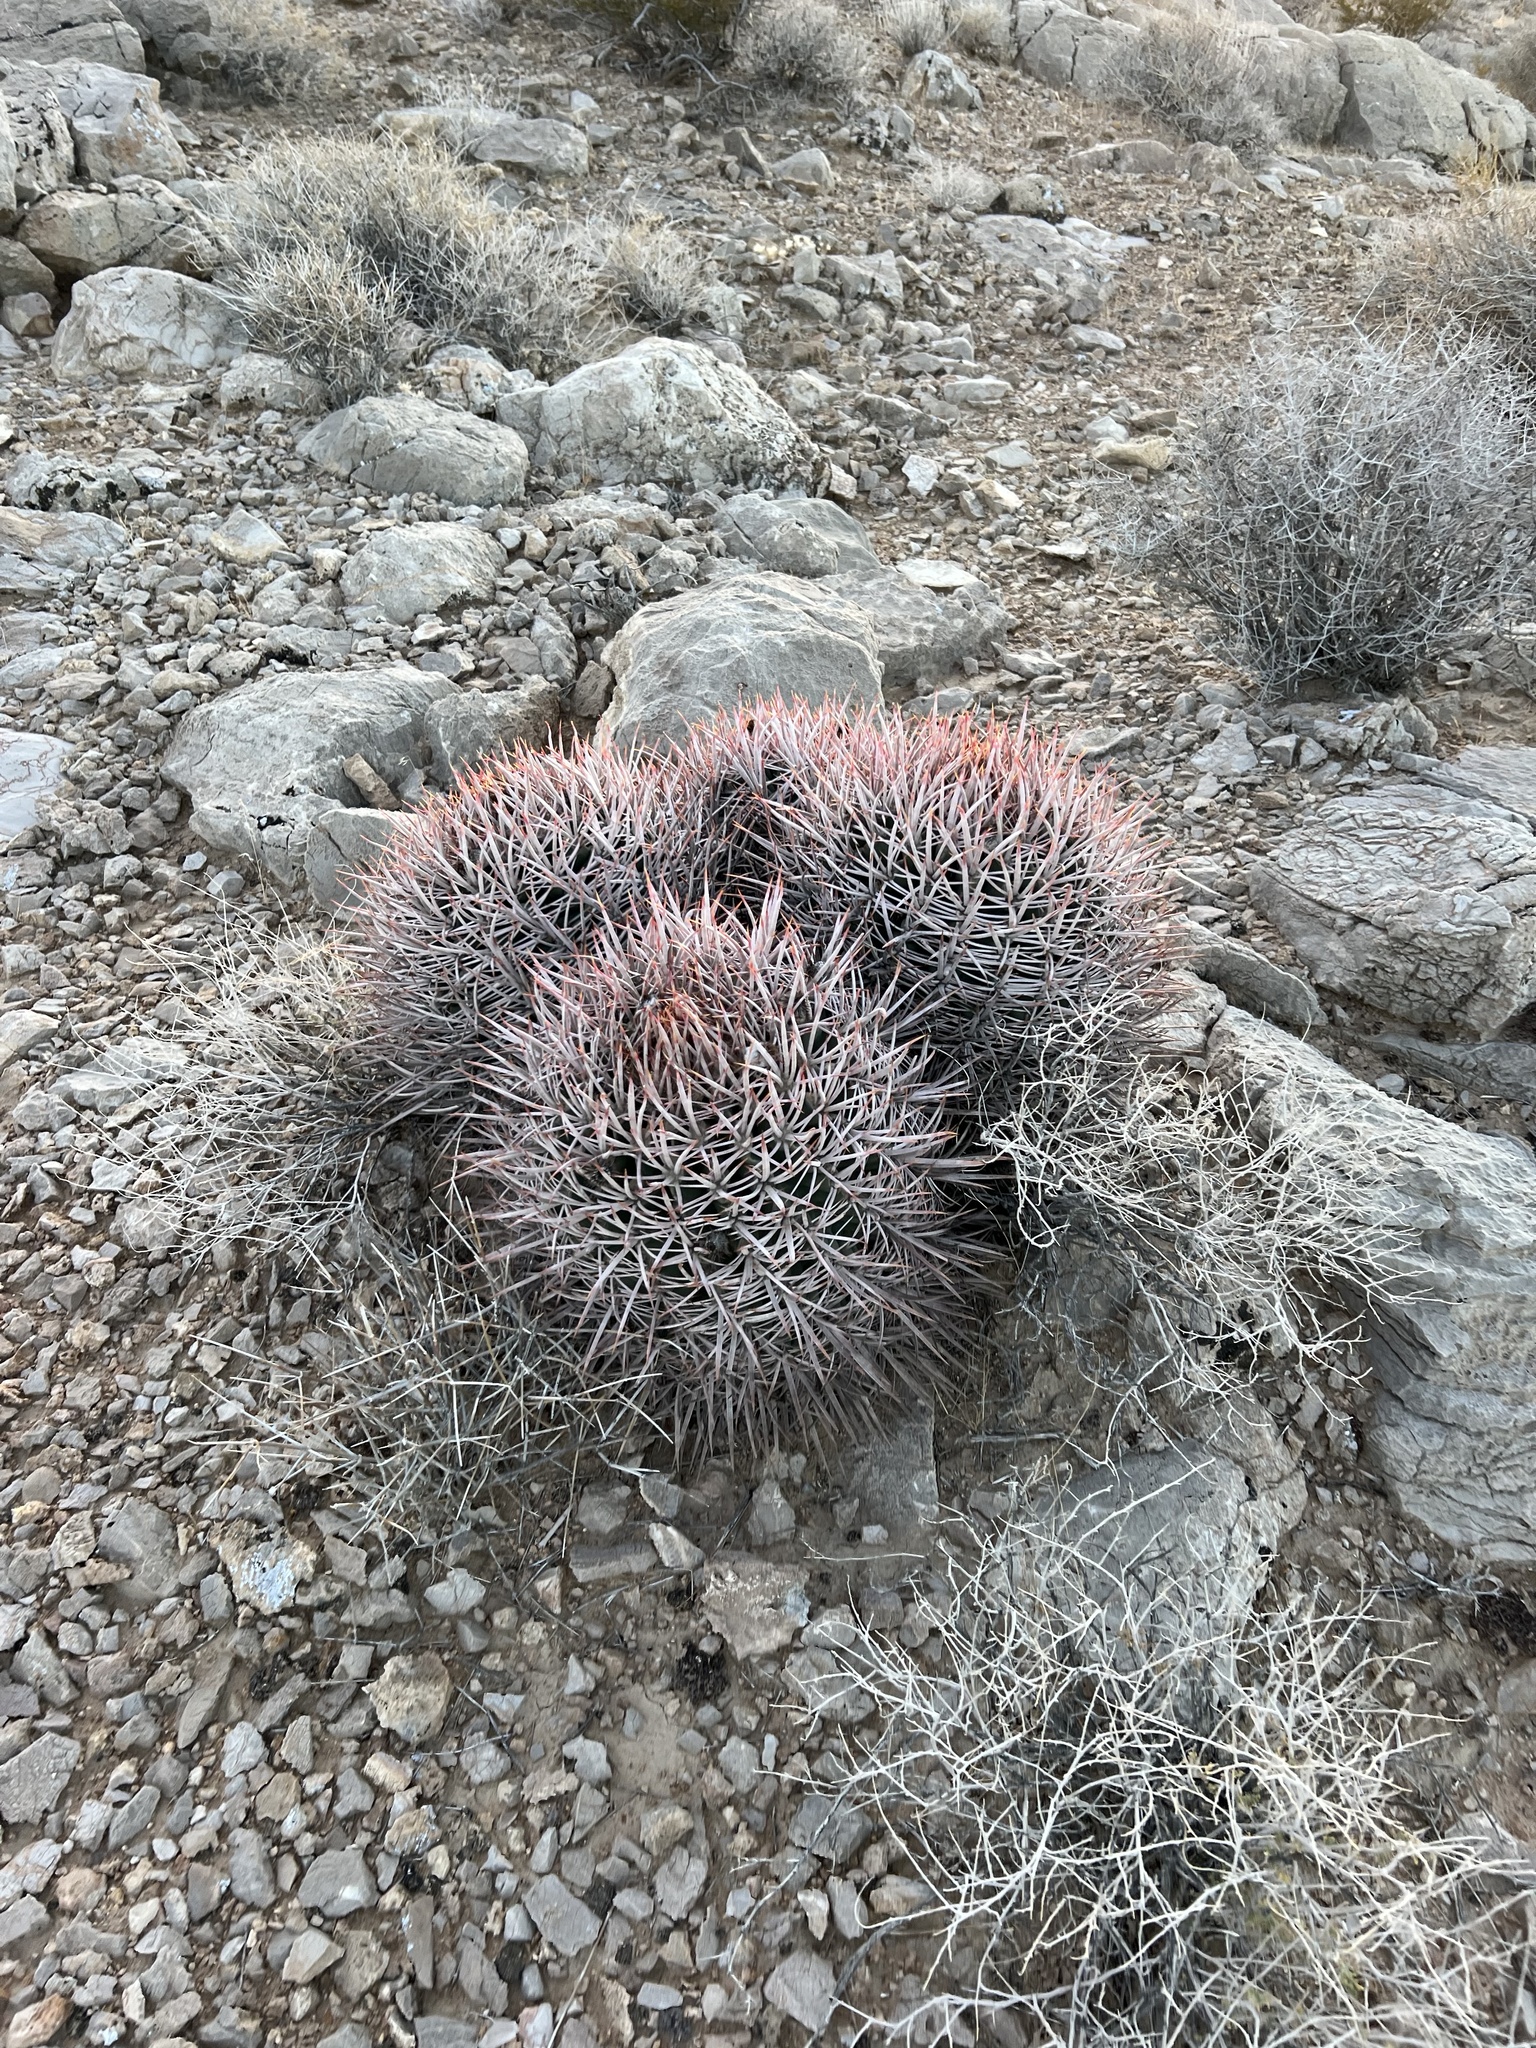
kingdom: Plantae
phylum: Tracheophyta
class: Magnoliopsida
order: Caryophyllales
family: Cactaceae
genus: Echinocactus
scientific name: Echinocactus polycephalus
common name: Cottontop cactus
